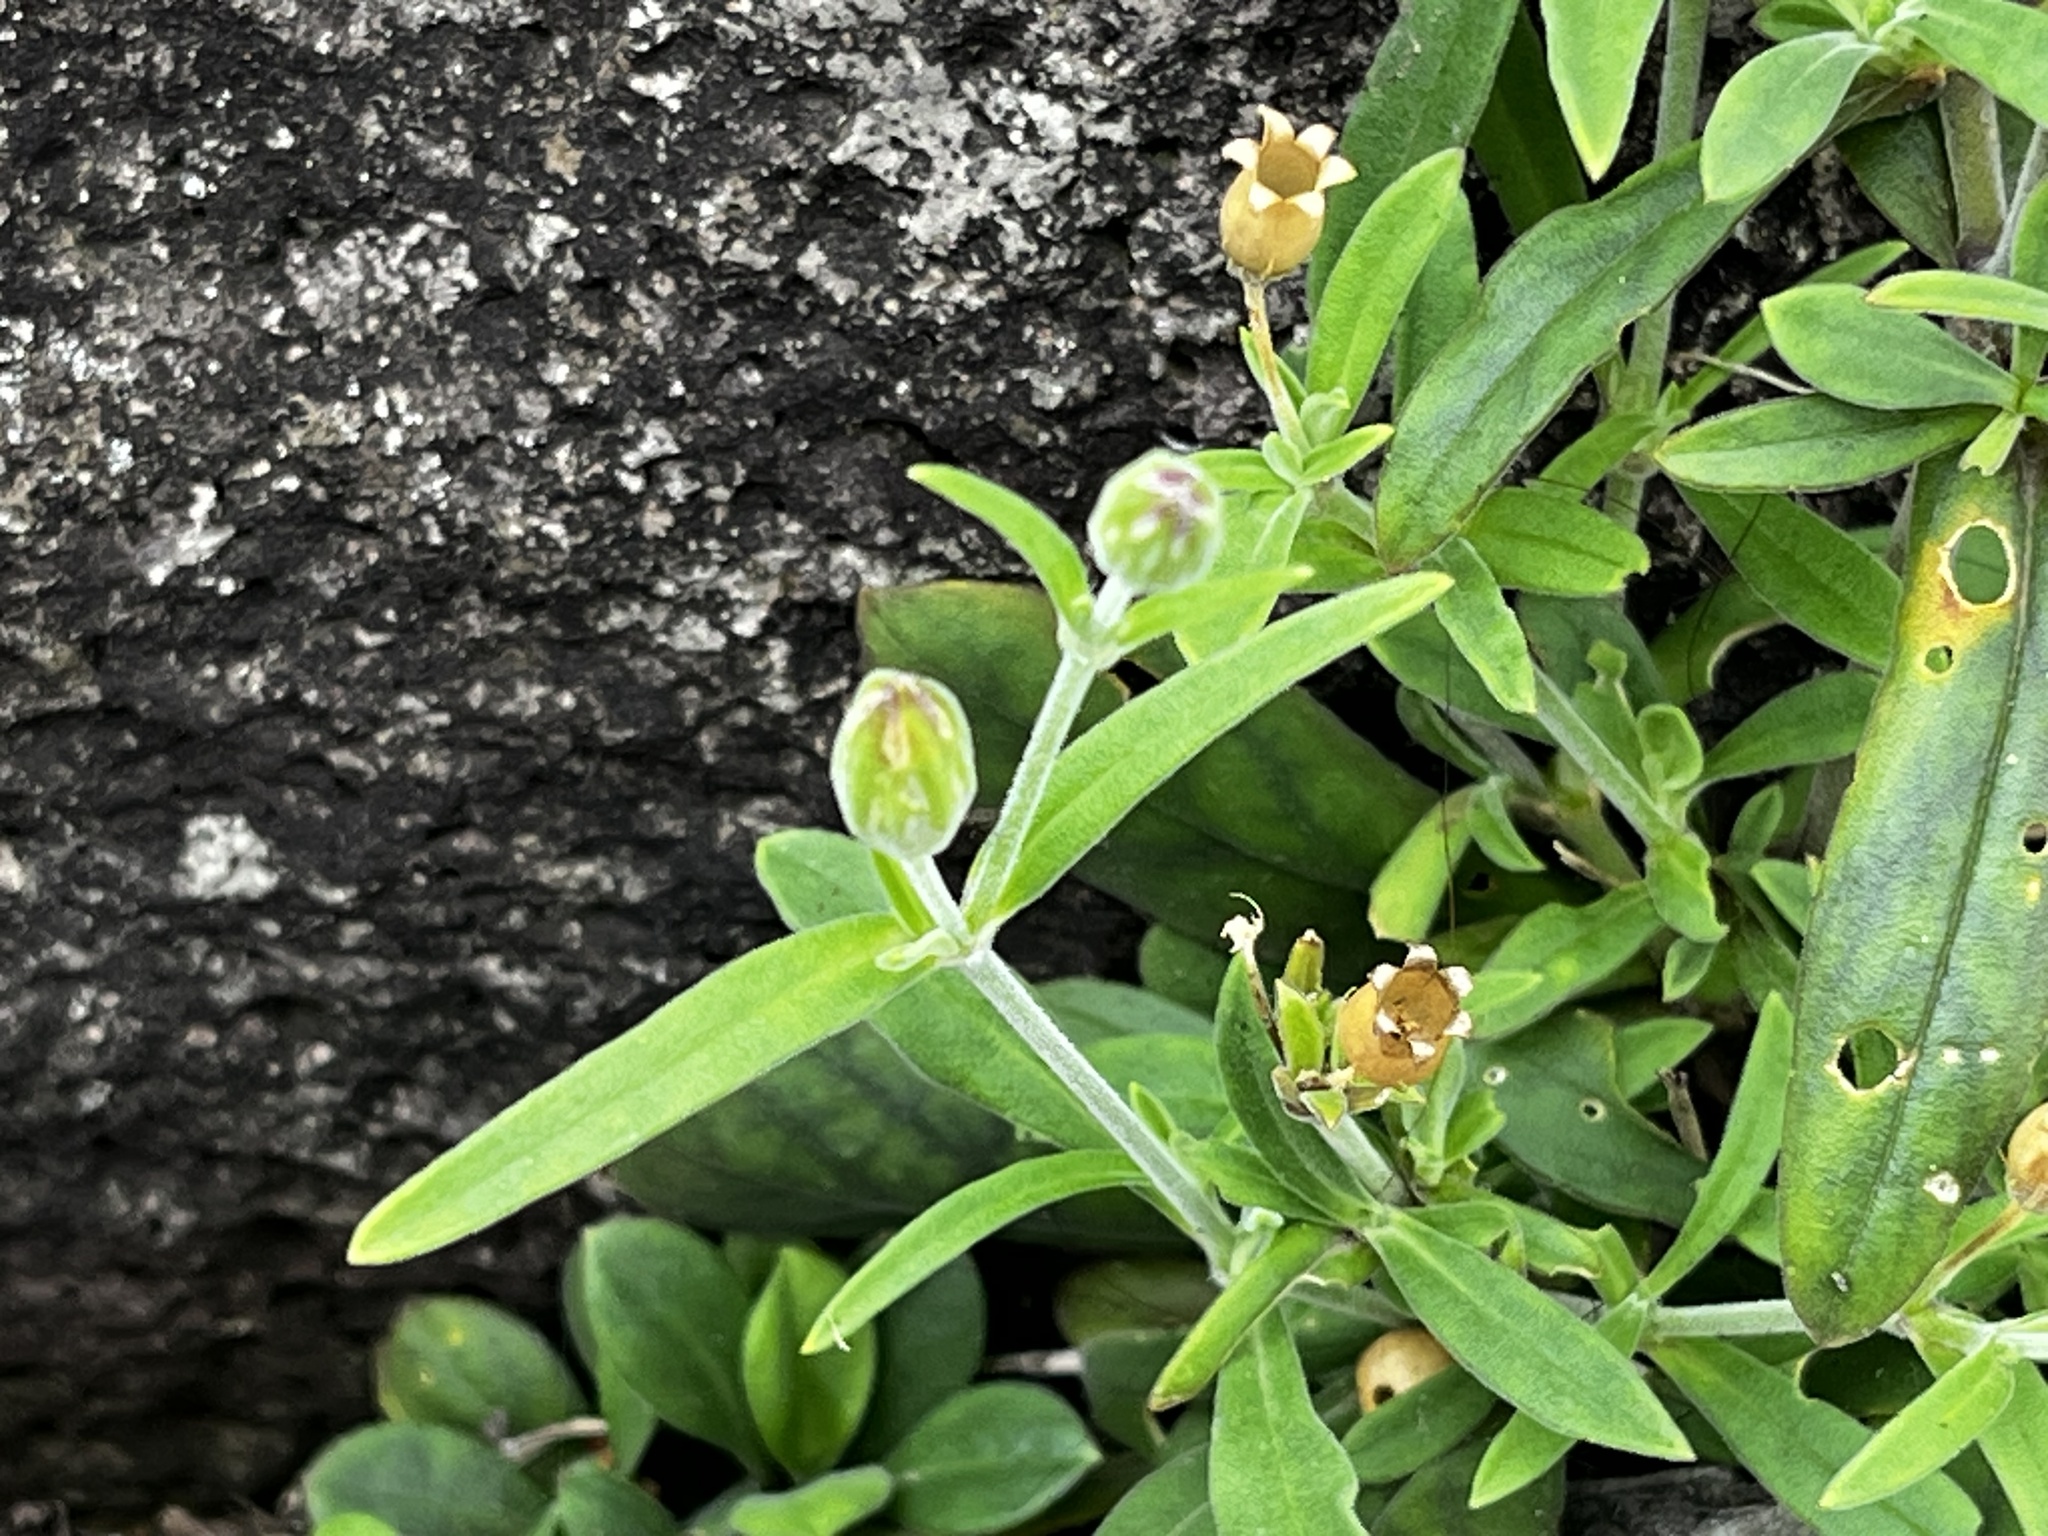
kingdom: Plantae
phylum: Tracheophyta
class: Magnoliopsida
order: Caryophyllales
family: Caryophyllaceae
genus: Silene
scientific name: Silene aprica
